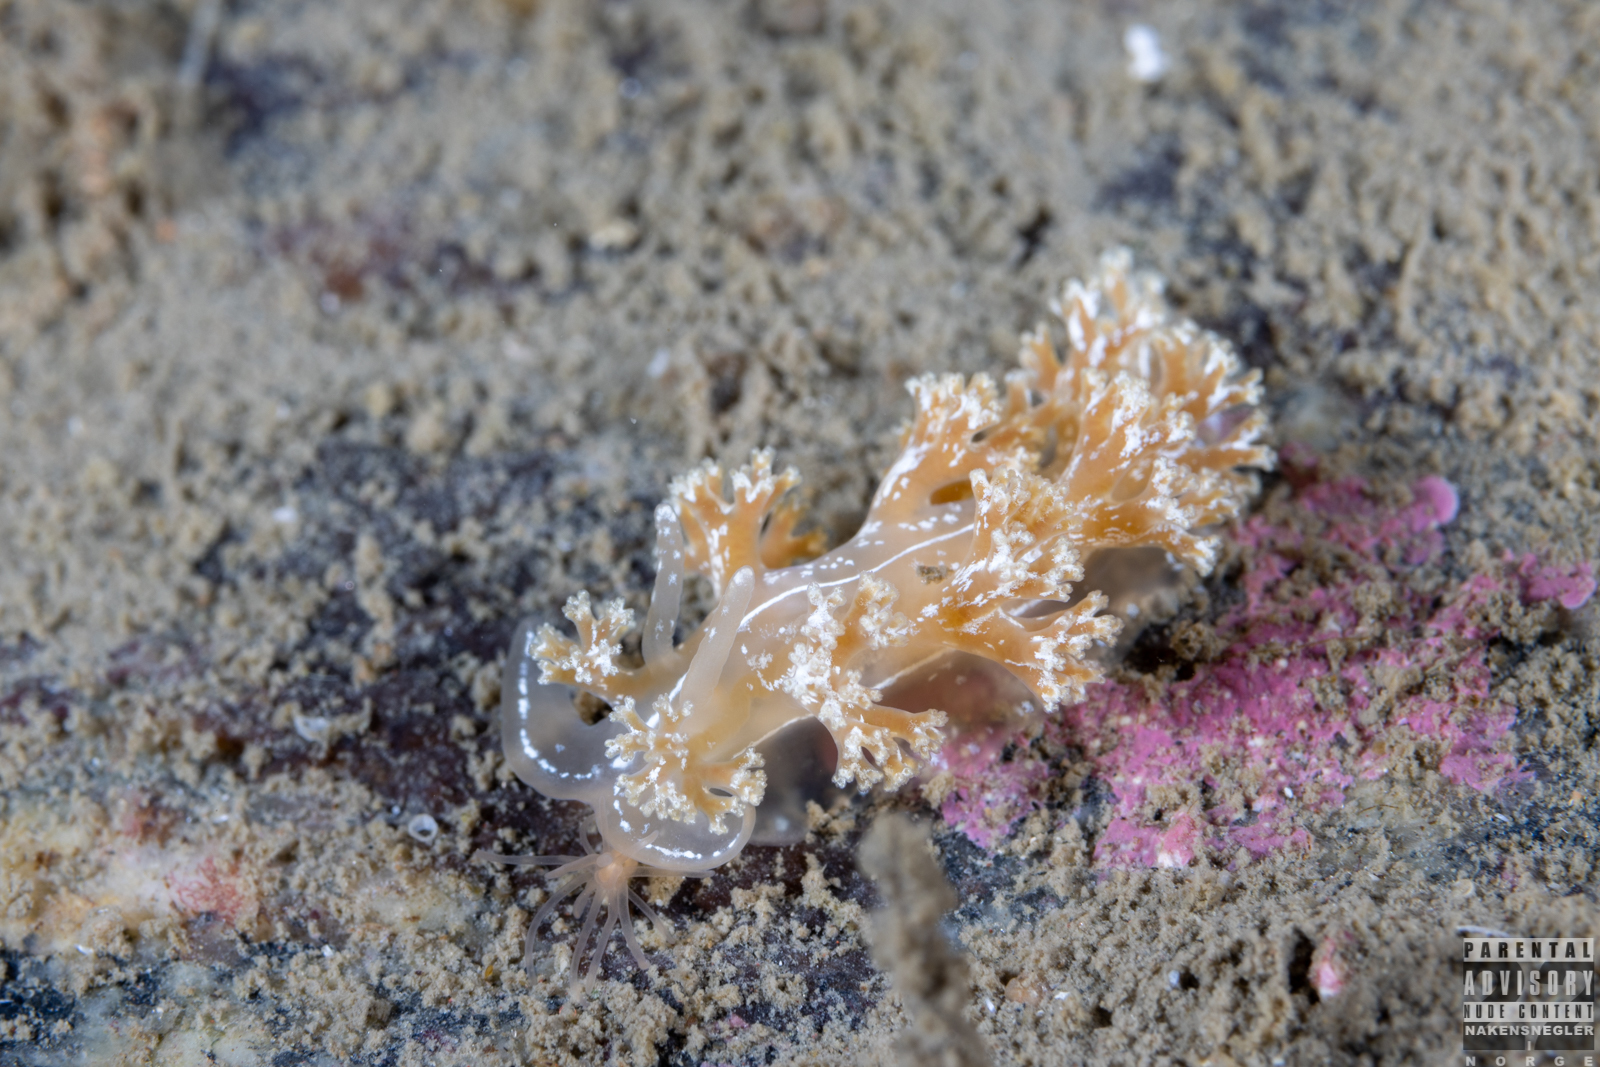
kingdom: Animalia
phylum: Mollusca
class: Gastropoda
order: Nudibranchia
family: Heroidae
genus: Hero
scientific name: Hero formosa
